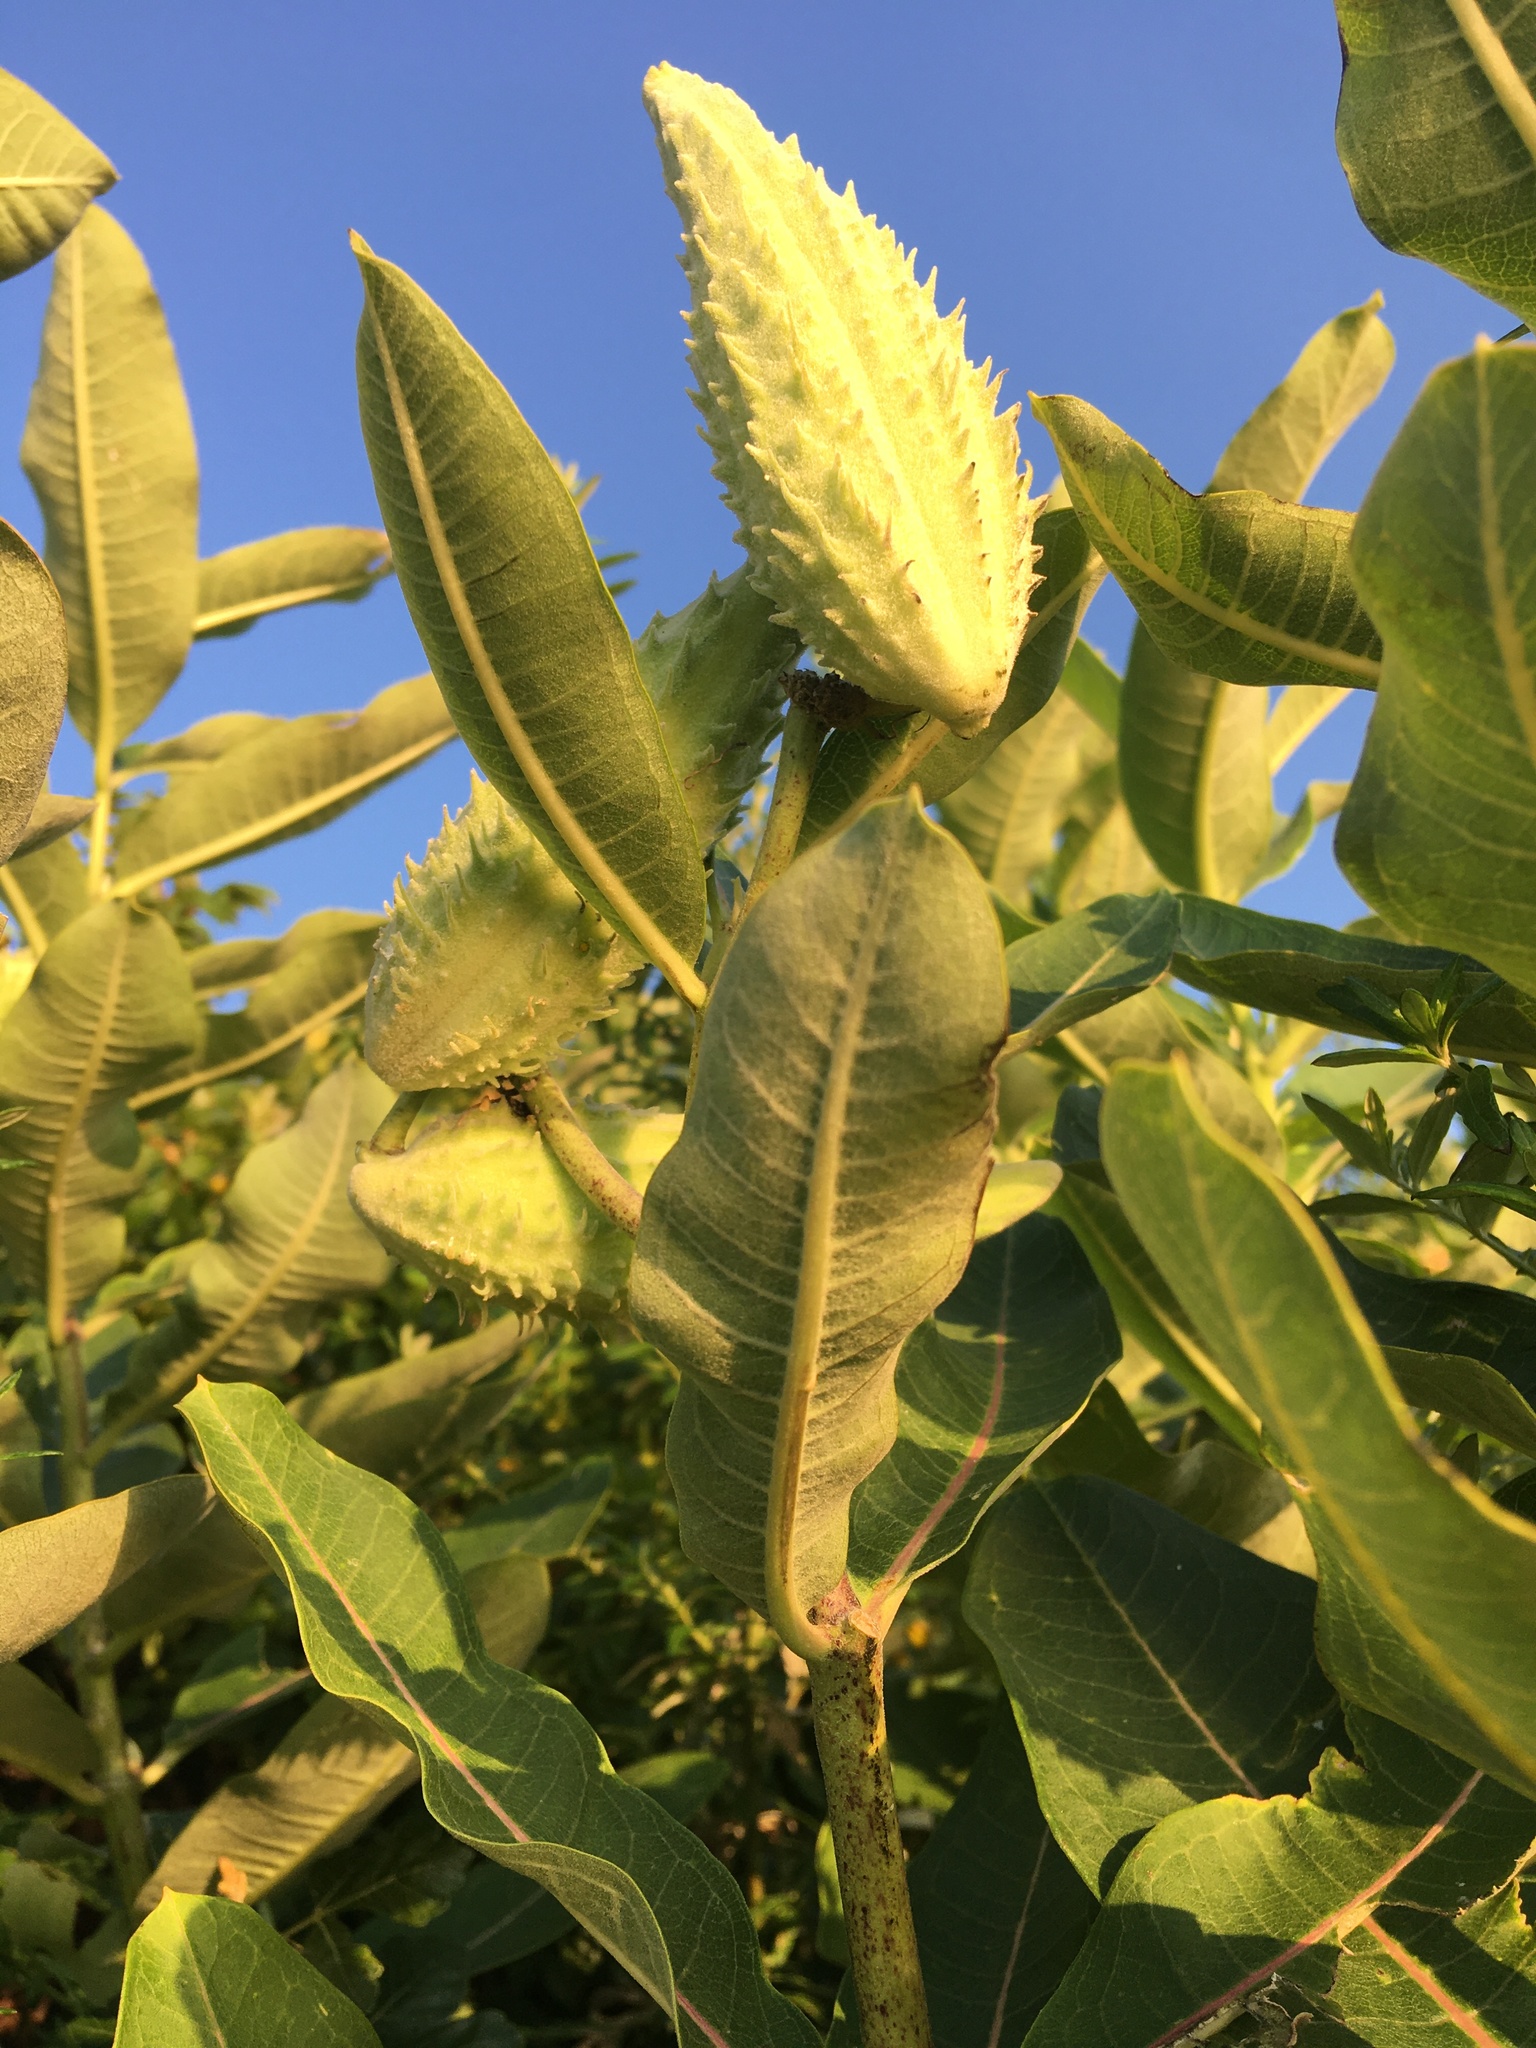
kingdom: Plantae
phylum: Tracheophyta
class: Magnoliopsida
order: Gentianales
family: Apocynaceae
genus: Asclepias
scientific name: Asclepias syriaca
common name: Common milkweed
